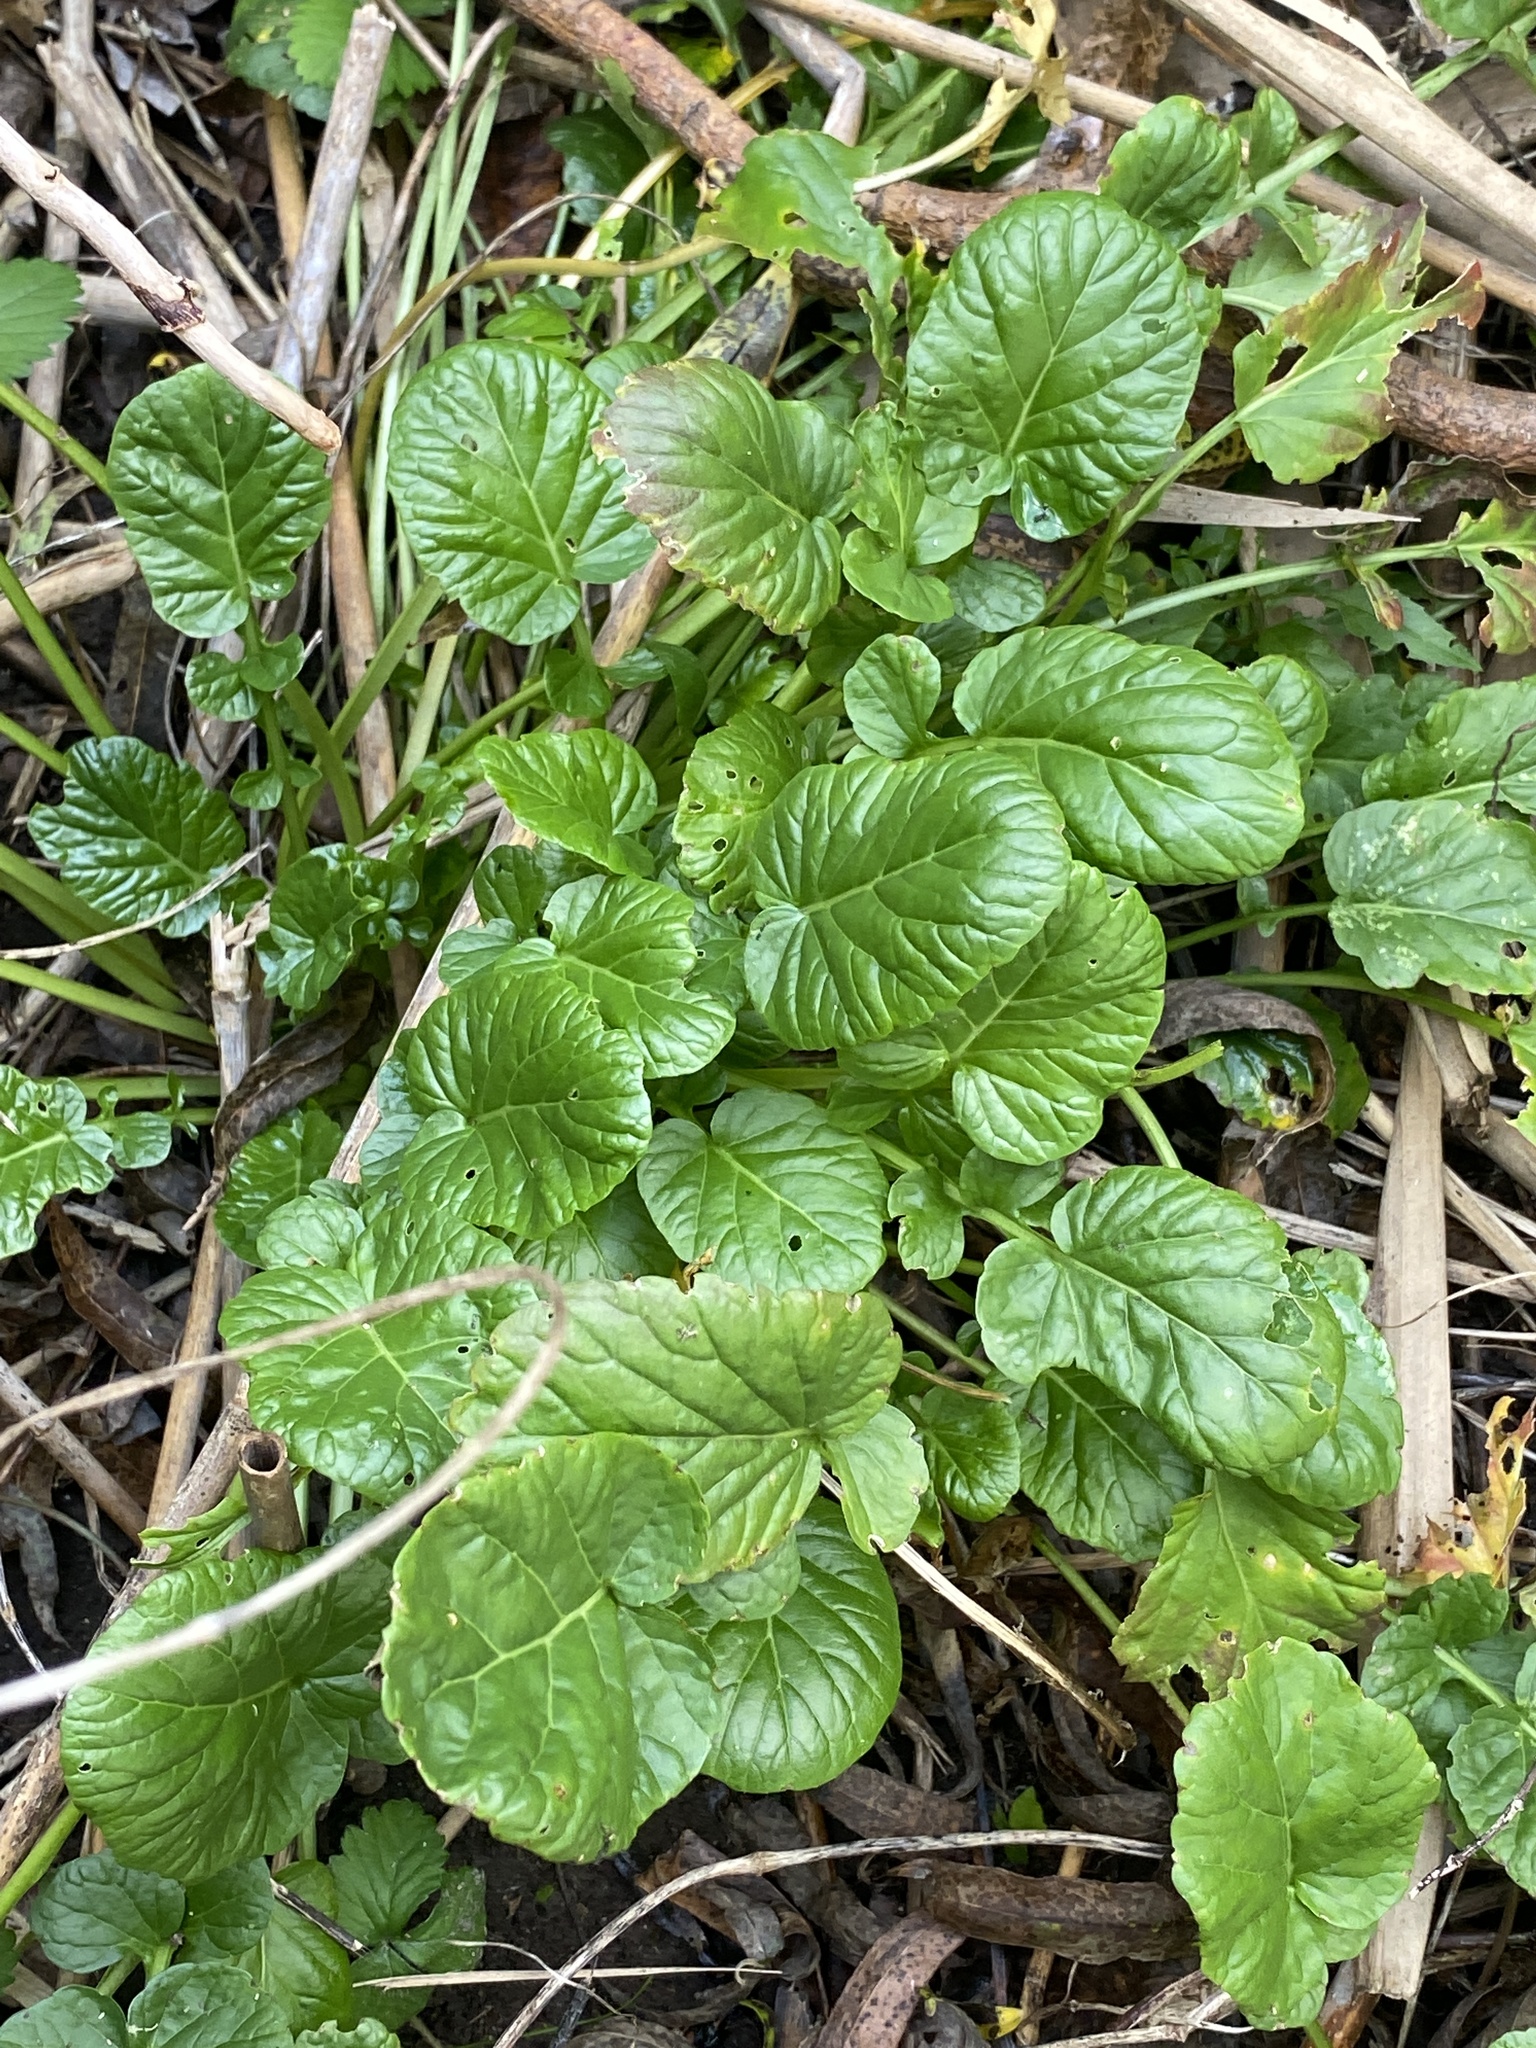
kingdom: Plantae
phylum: Tracheophyta
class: Magnoliopsida
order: Brassicales
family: Brassicaceae
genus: Barbarea
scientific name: Barbarea vulgaris
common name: Cressy-greens
